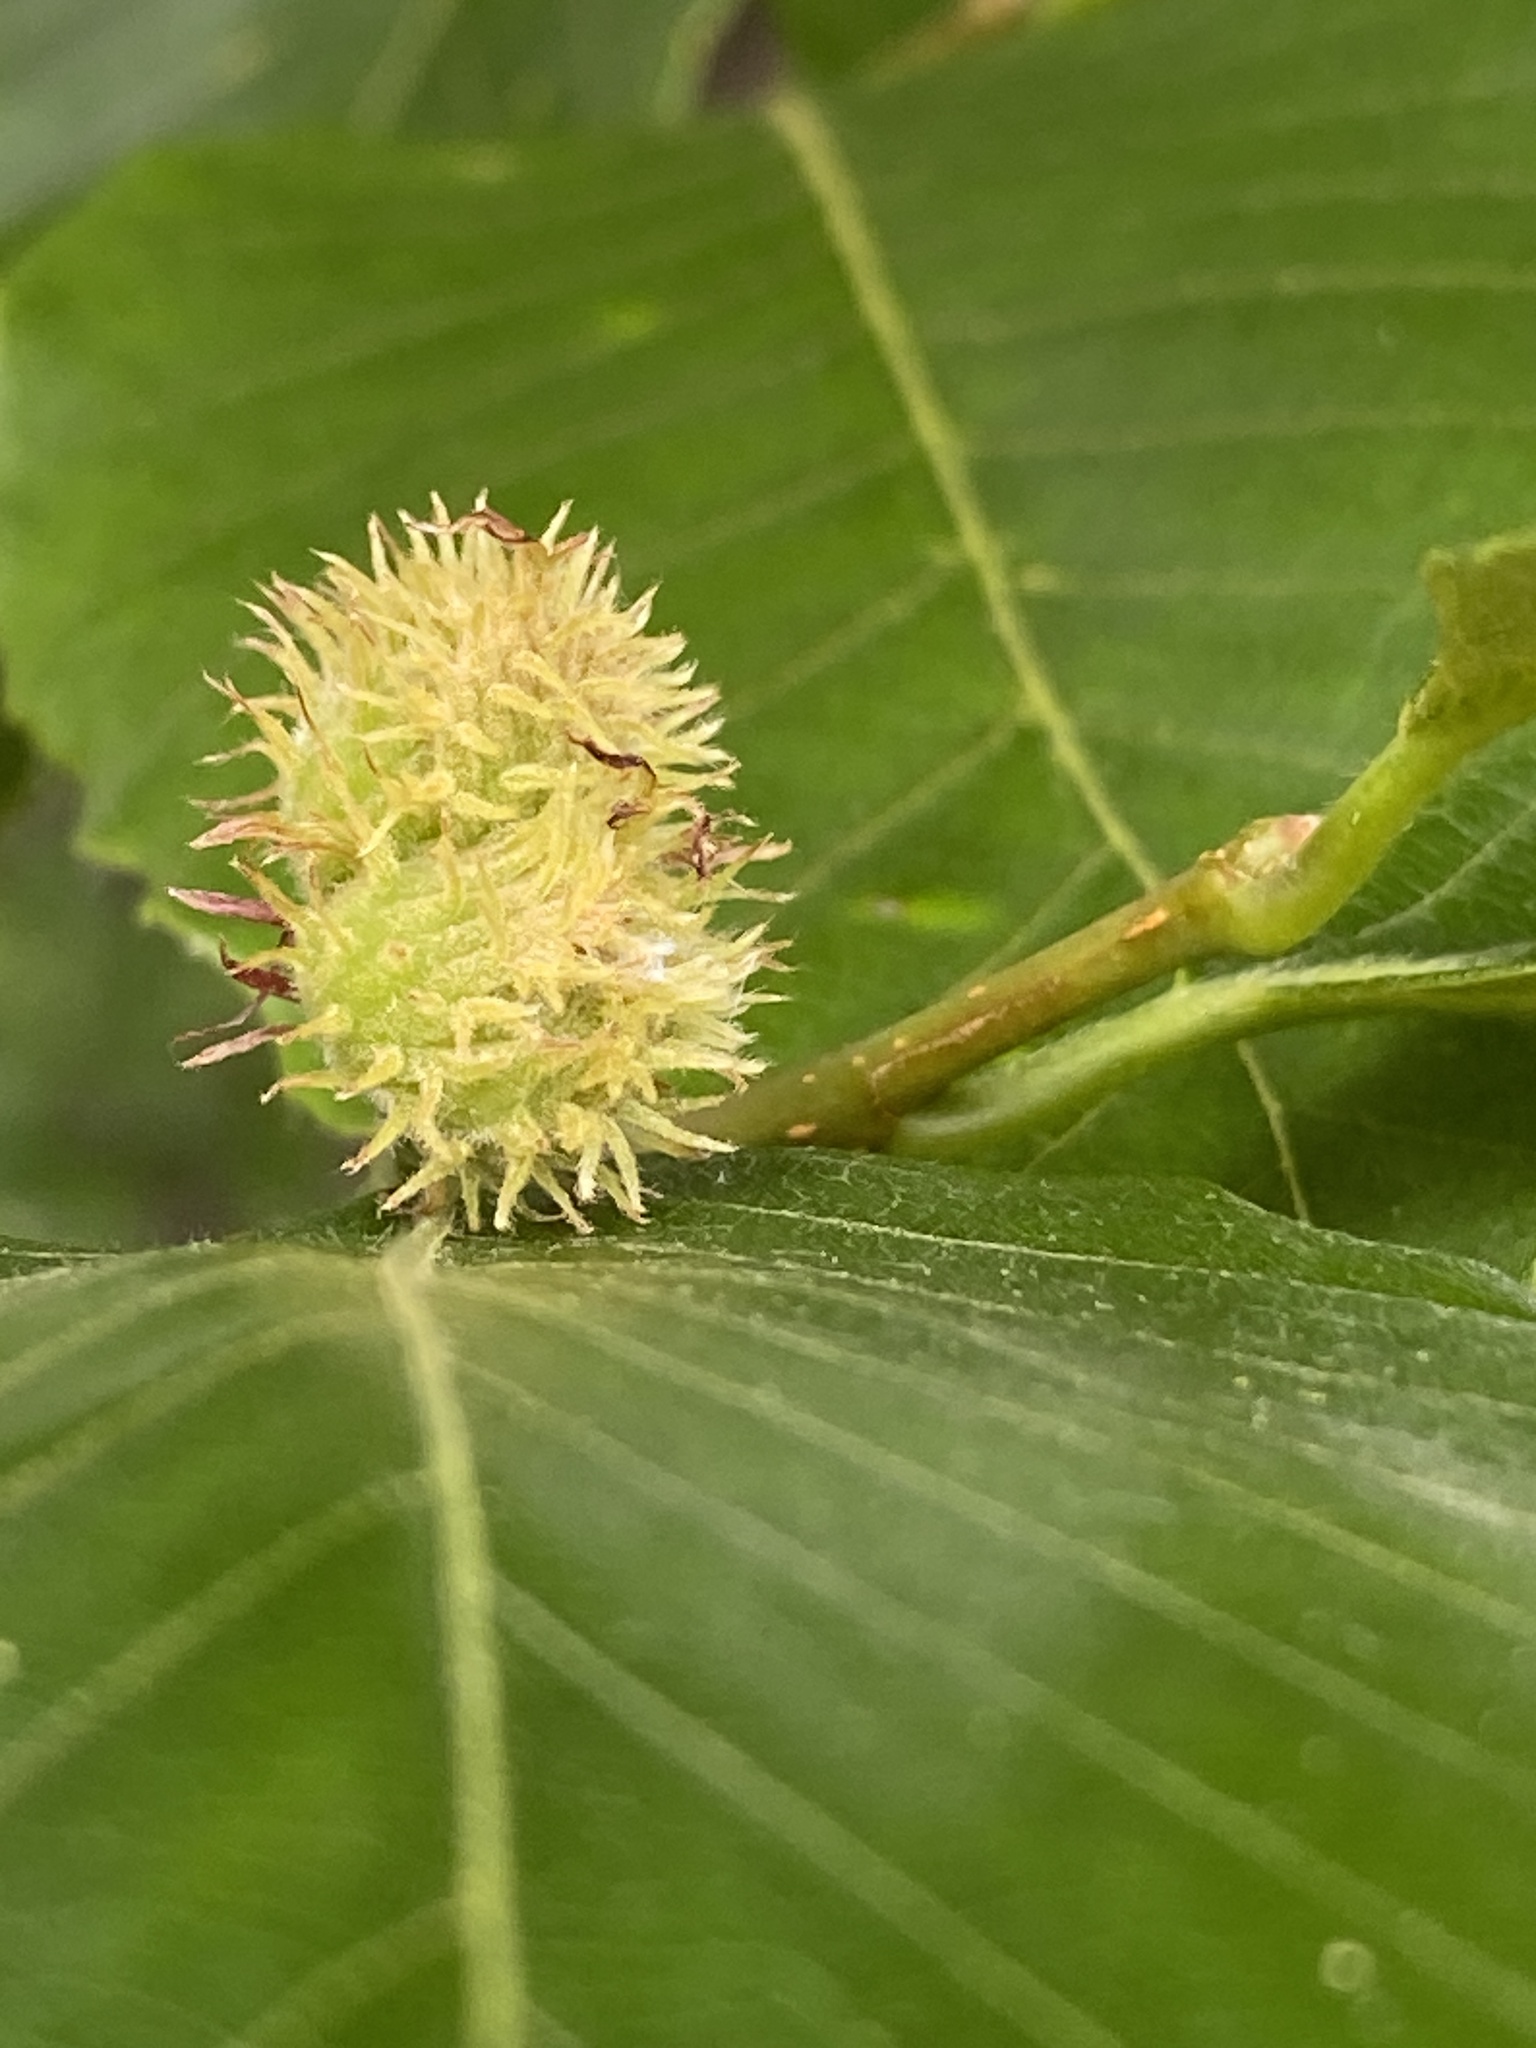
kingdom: Plantae
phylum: Tracheophyta
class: Magnoliopsida
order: Fagales
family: Fagaceae
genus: Fagus
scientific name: Fagus grandifolia
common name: American beech
